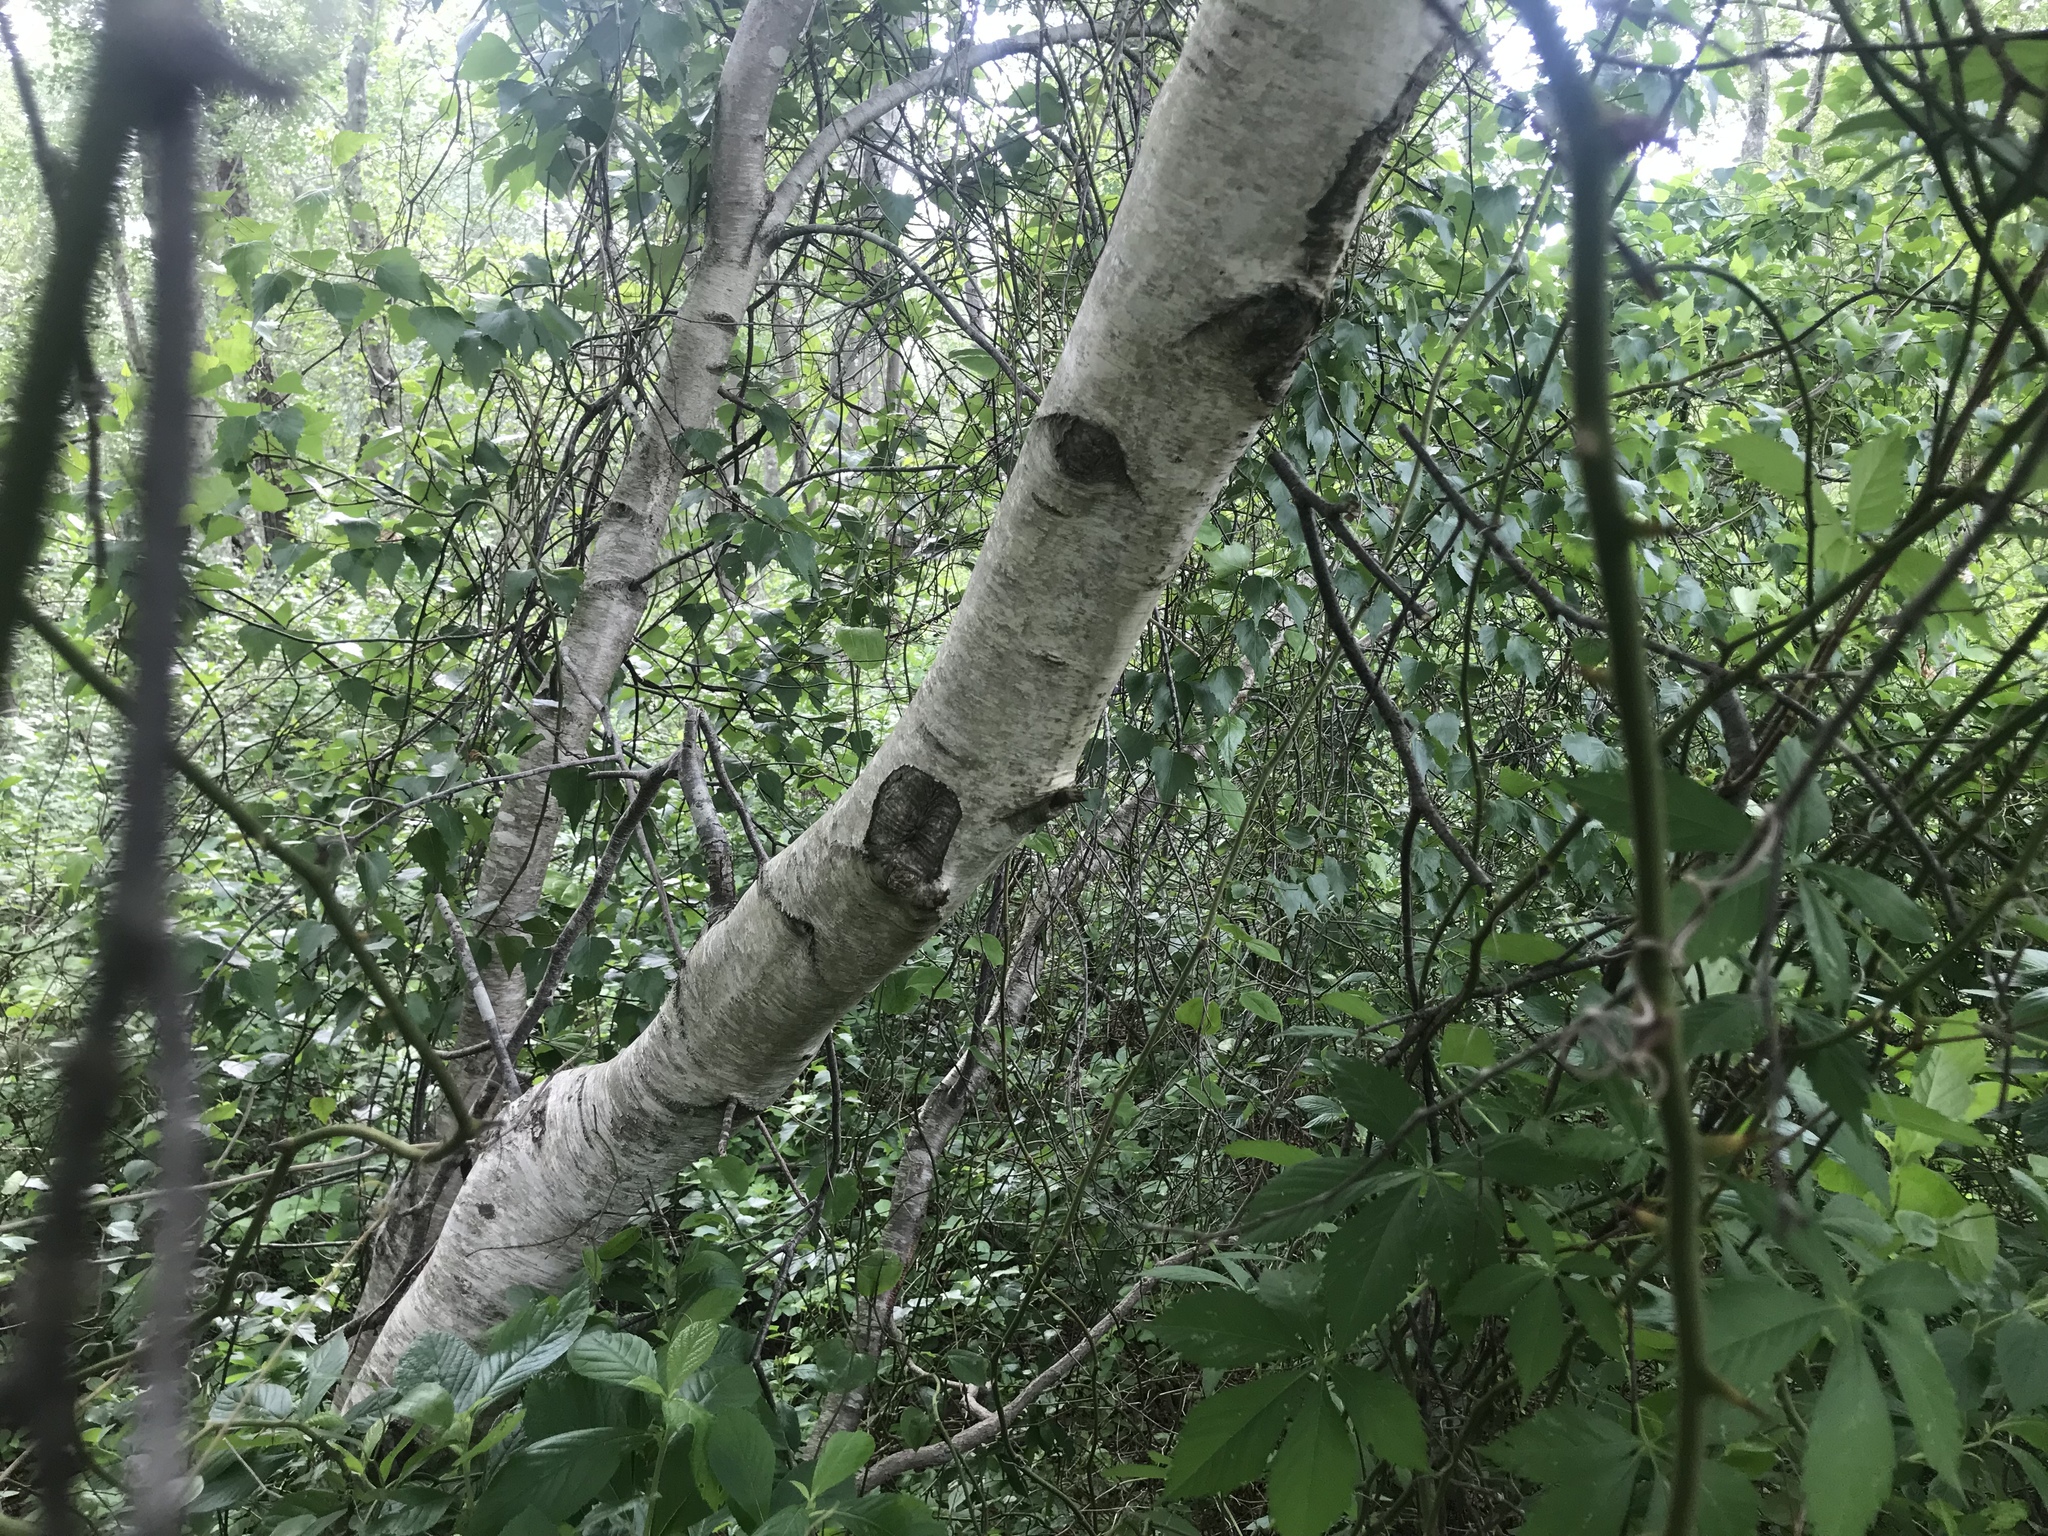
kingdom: Plantae
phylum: Tracheophyta
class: Magnoliopsida
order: Fagales
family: Betulaceae
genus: Betula
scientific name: Betula populifolia
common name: Fire birch
